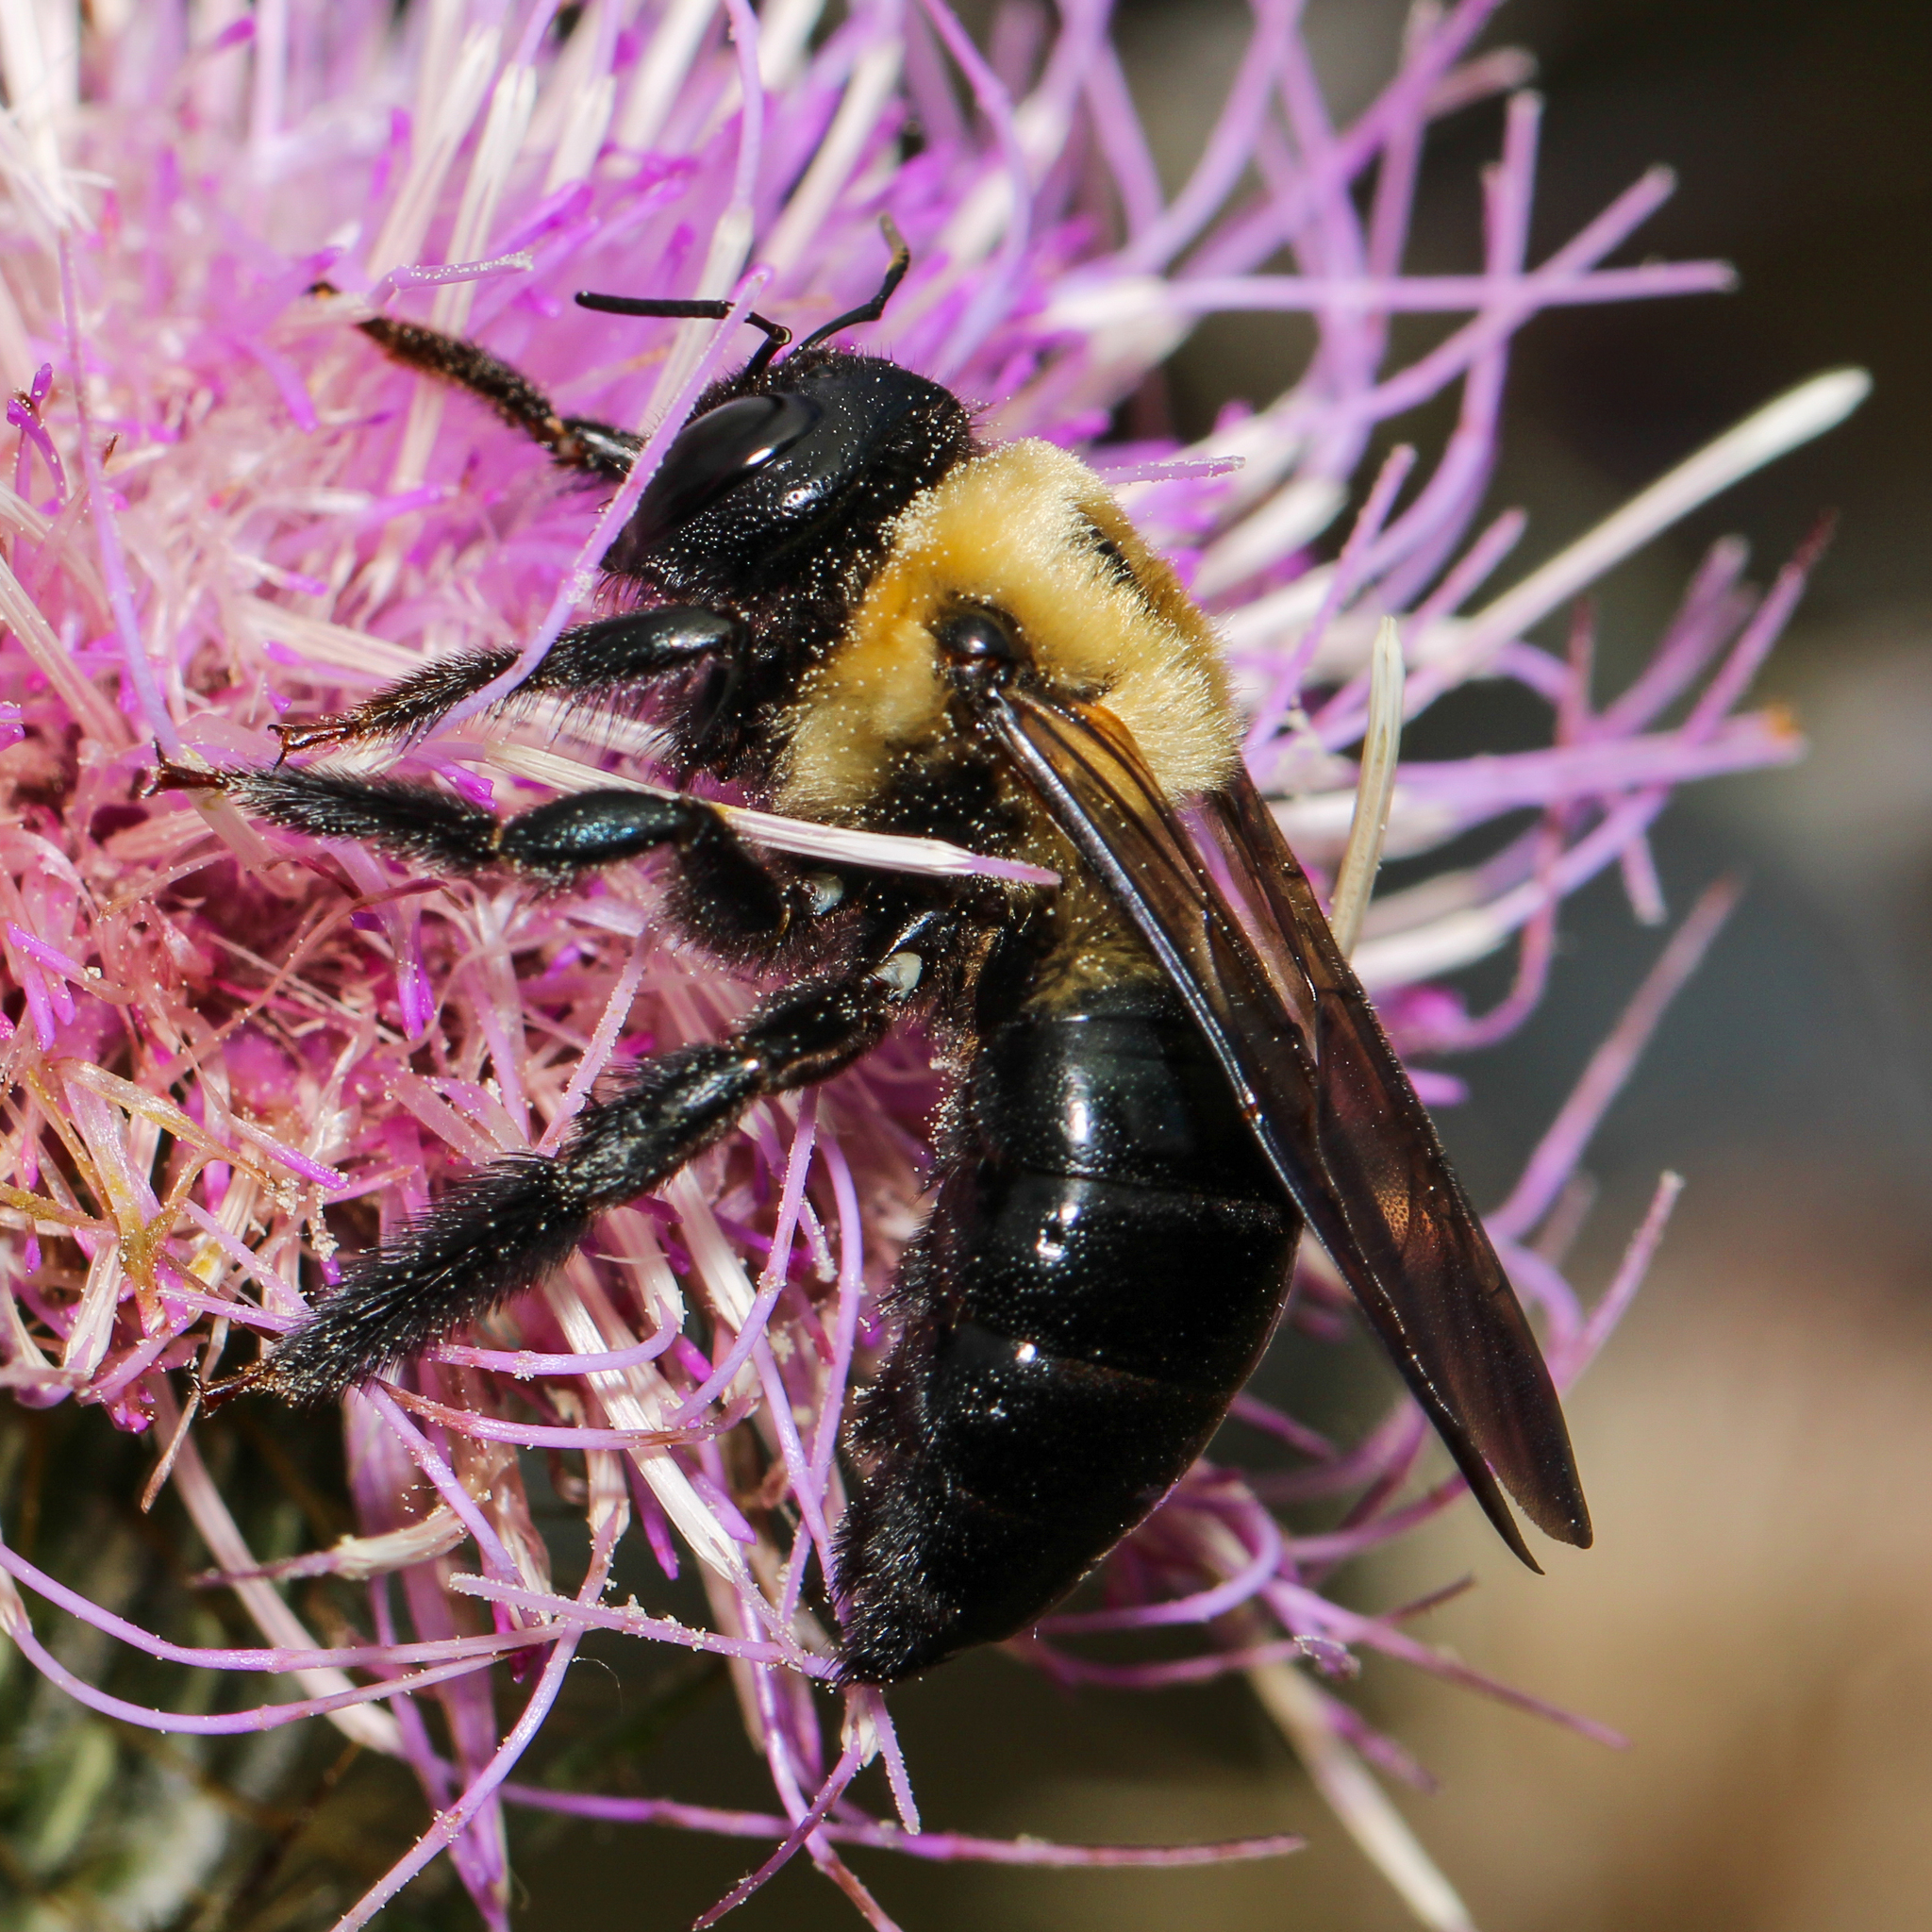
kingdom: Animalia
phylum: Arthropoda
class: Insecta
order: Hymenoptera
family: Apidae
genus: Xylocopa
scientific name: Xylocopa virginica
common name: Carpenter bee
